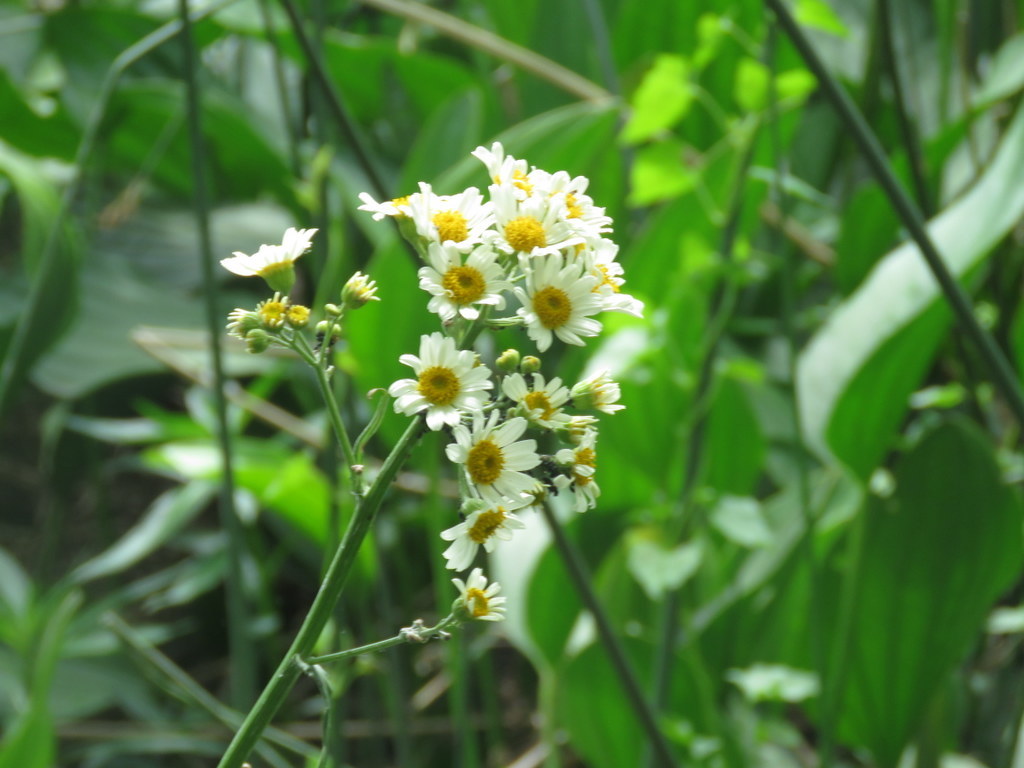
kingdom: Plantae
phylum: Tracheophyta
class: Magnoliopsida
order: Asterales
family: Asteraceae
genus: Senecio
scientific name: Senecio bonariensis
